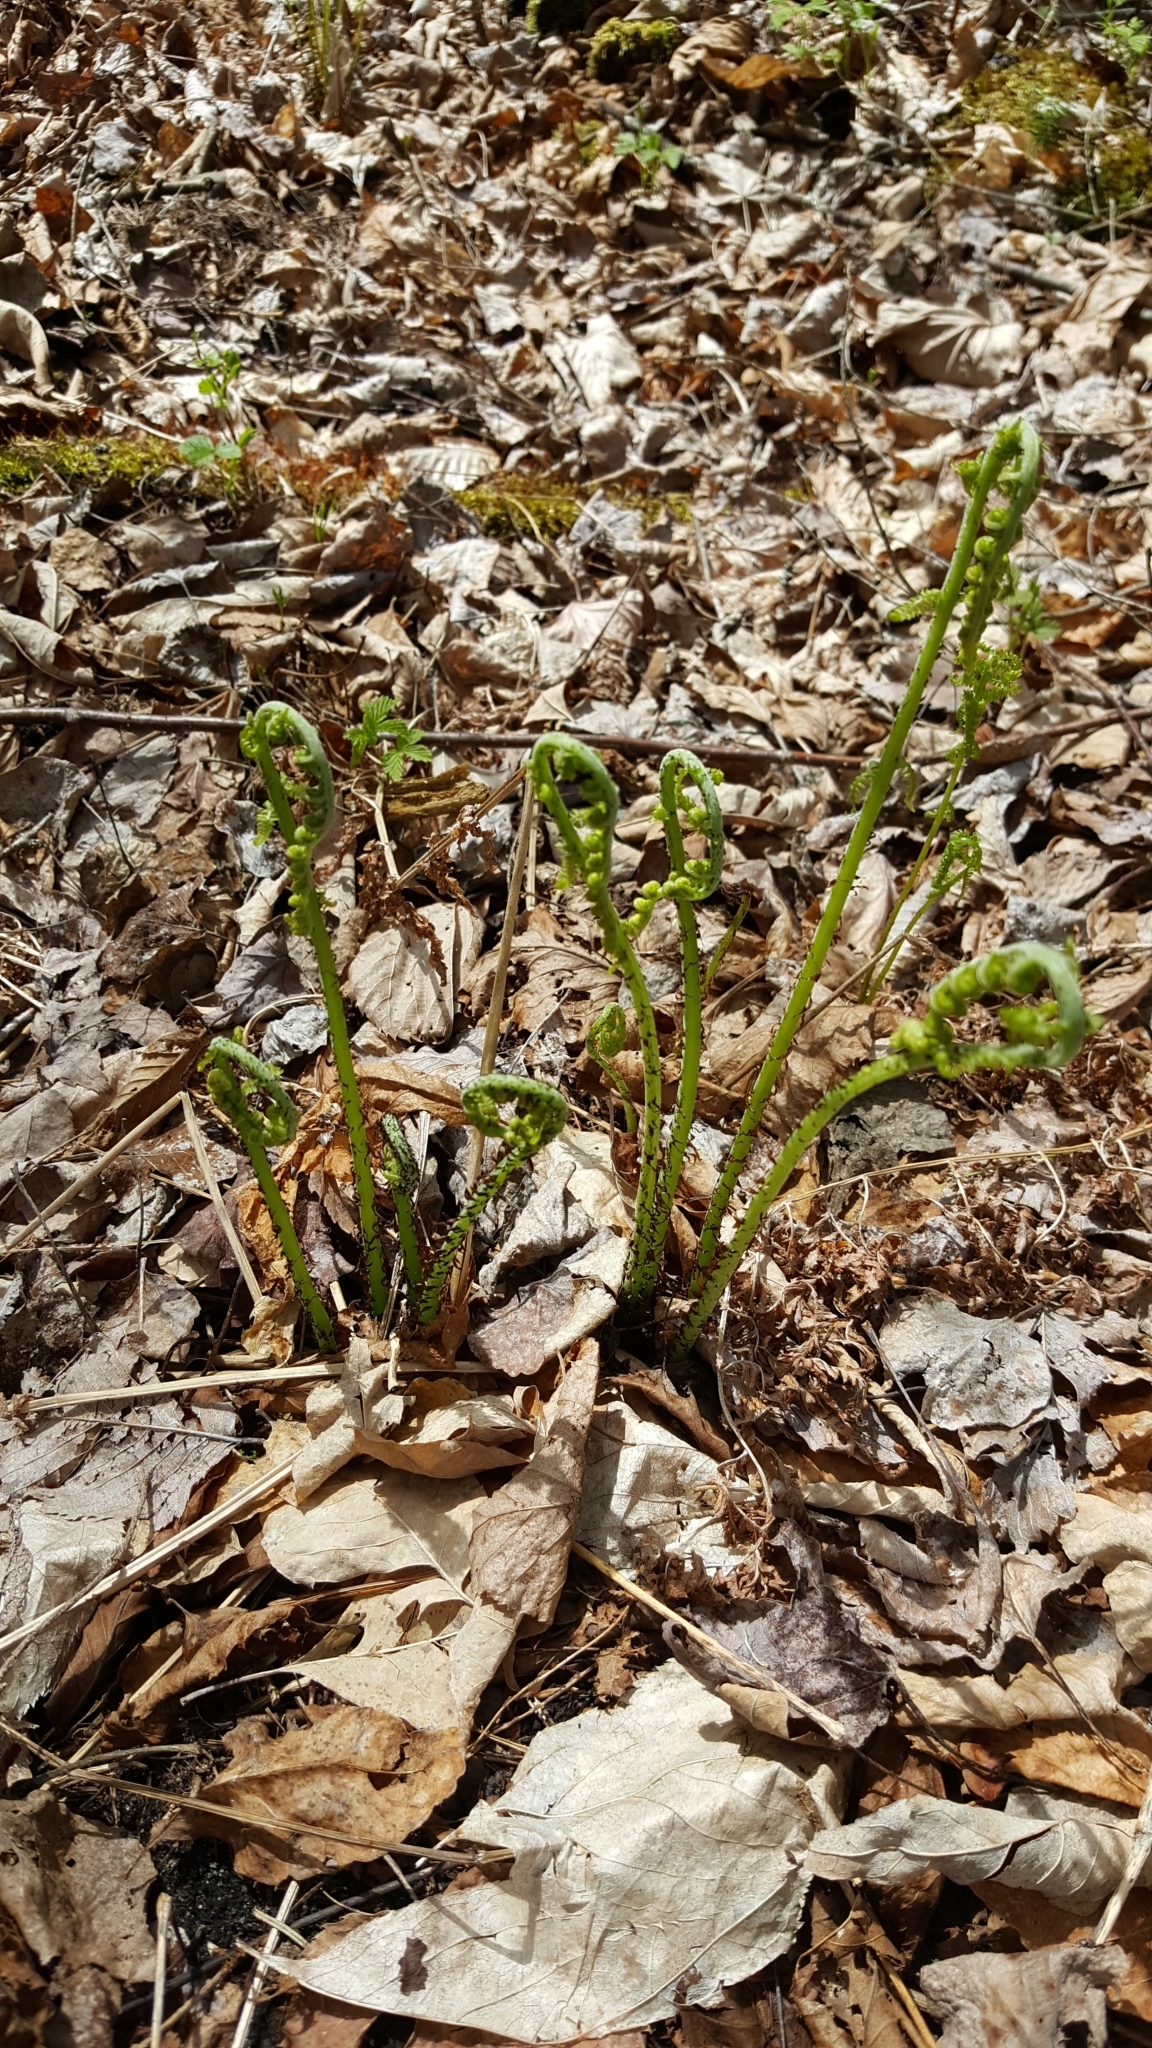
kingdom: Plantae
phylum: Tracheophyta
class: Polypodiopsida
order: Polypodiales
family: Athyriaceae
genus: Athyrium
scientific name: Athyrium angustum
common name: Northern lady fern
